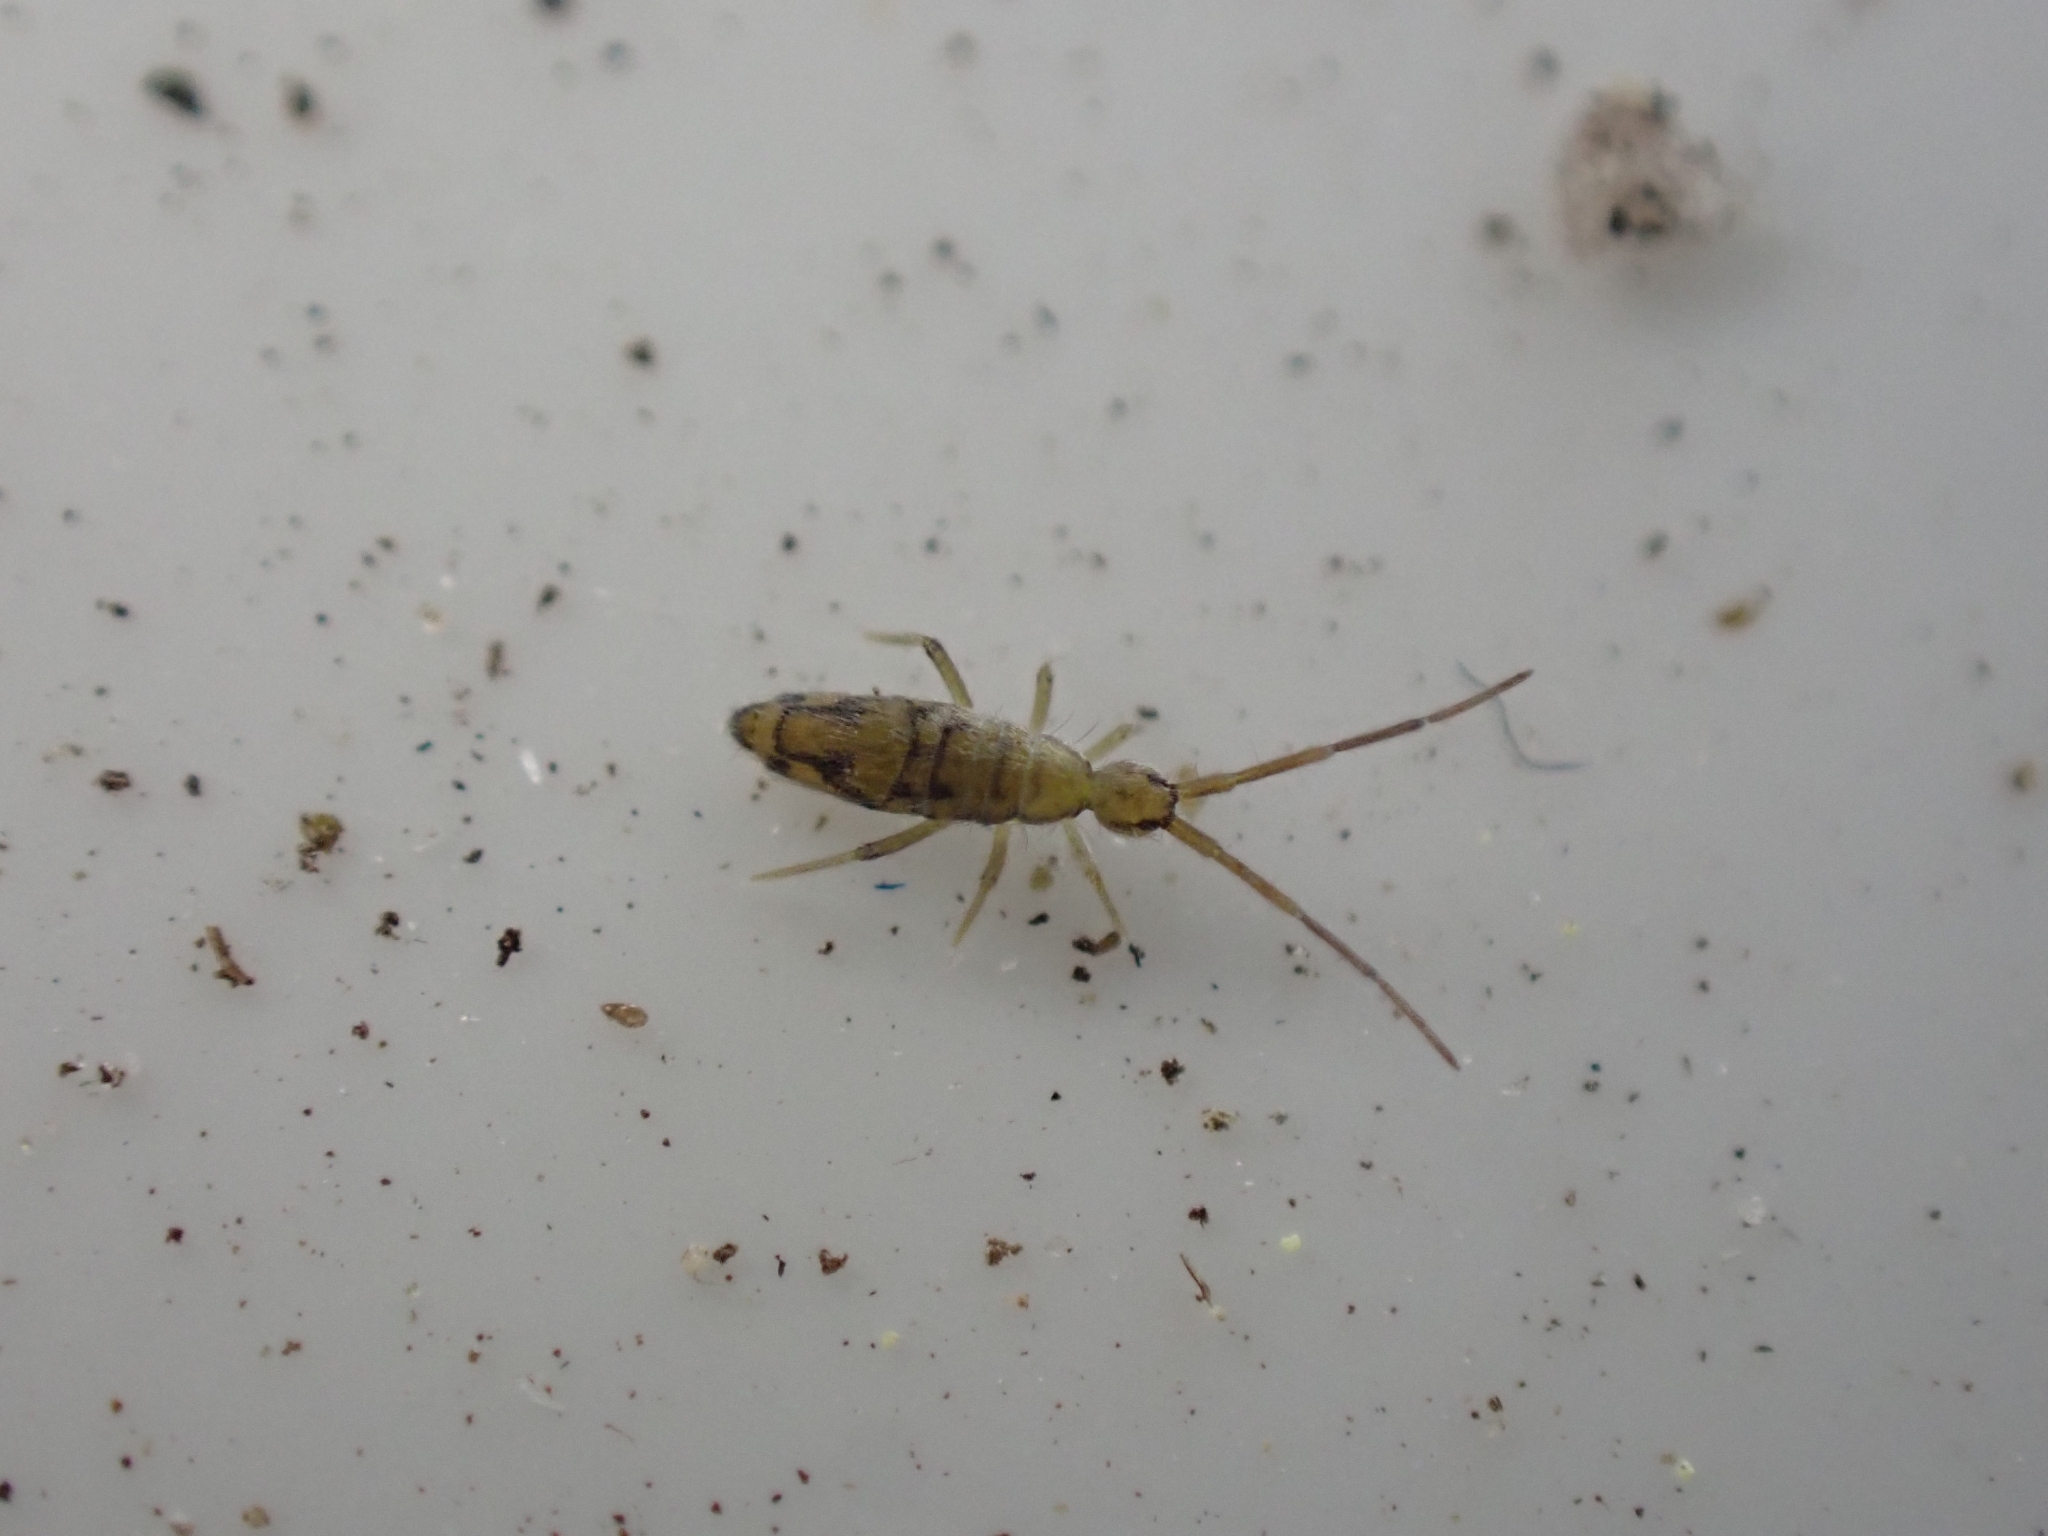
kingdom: Animalia
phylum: Arthropoda
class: Collembola
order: Entomobryomorpha
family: Entomobryidae
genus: Entomobrya
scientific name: Entomobrya nivalis
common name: Cosmopolitan springtail
